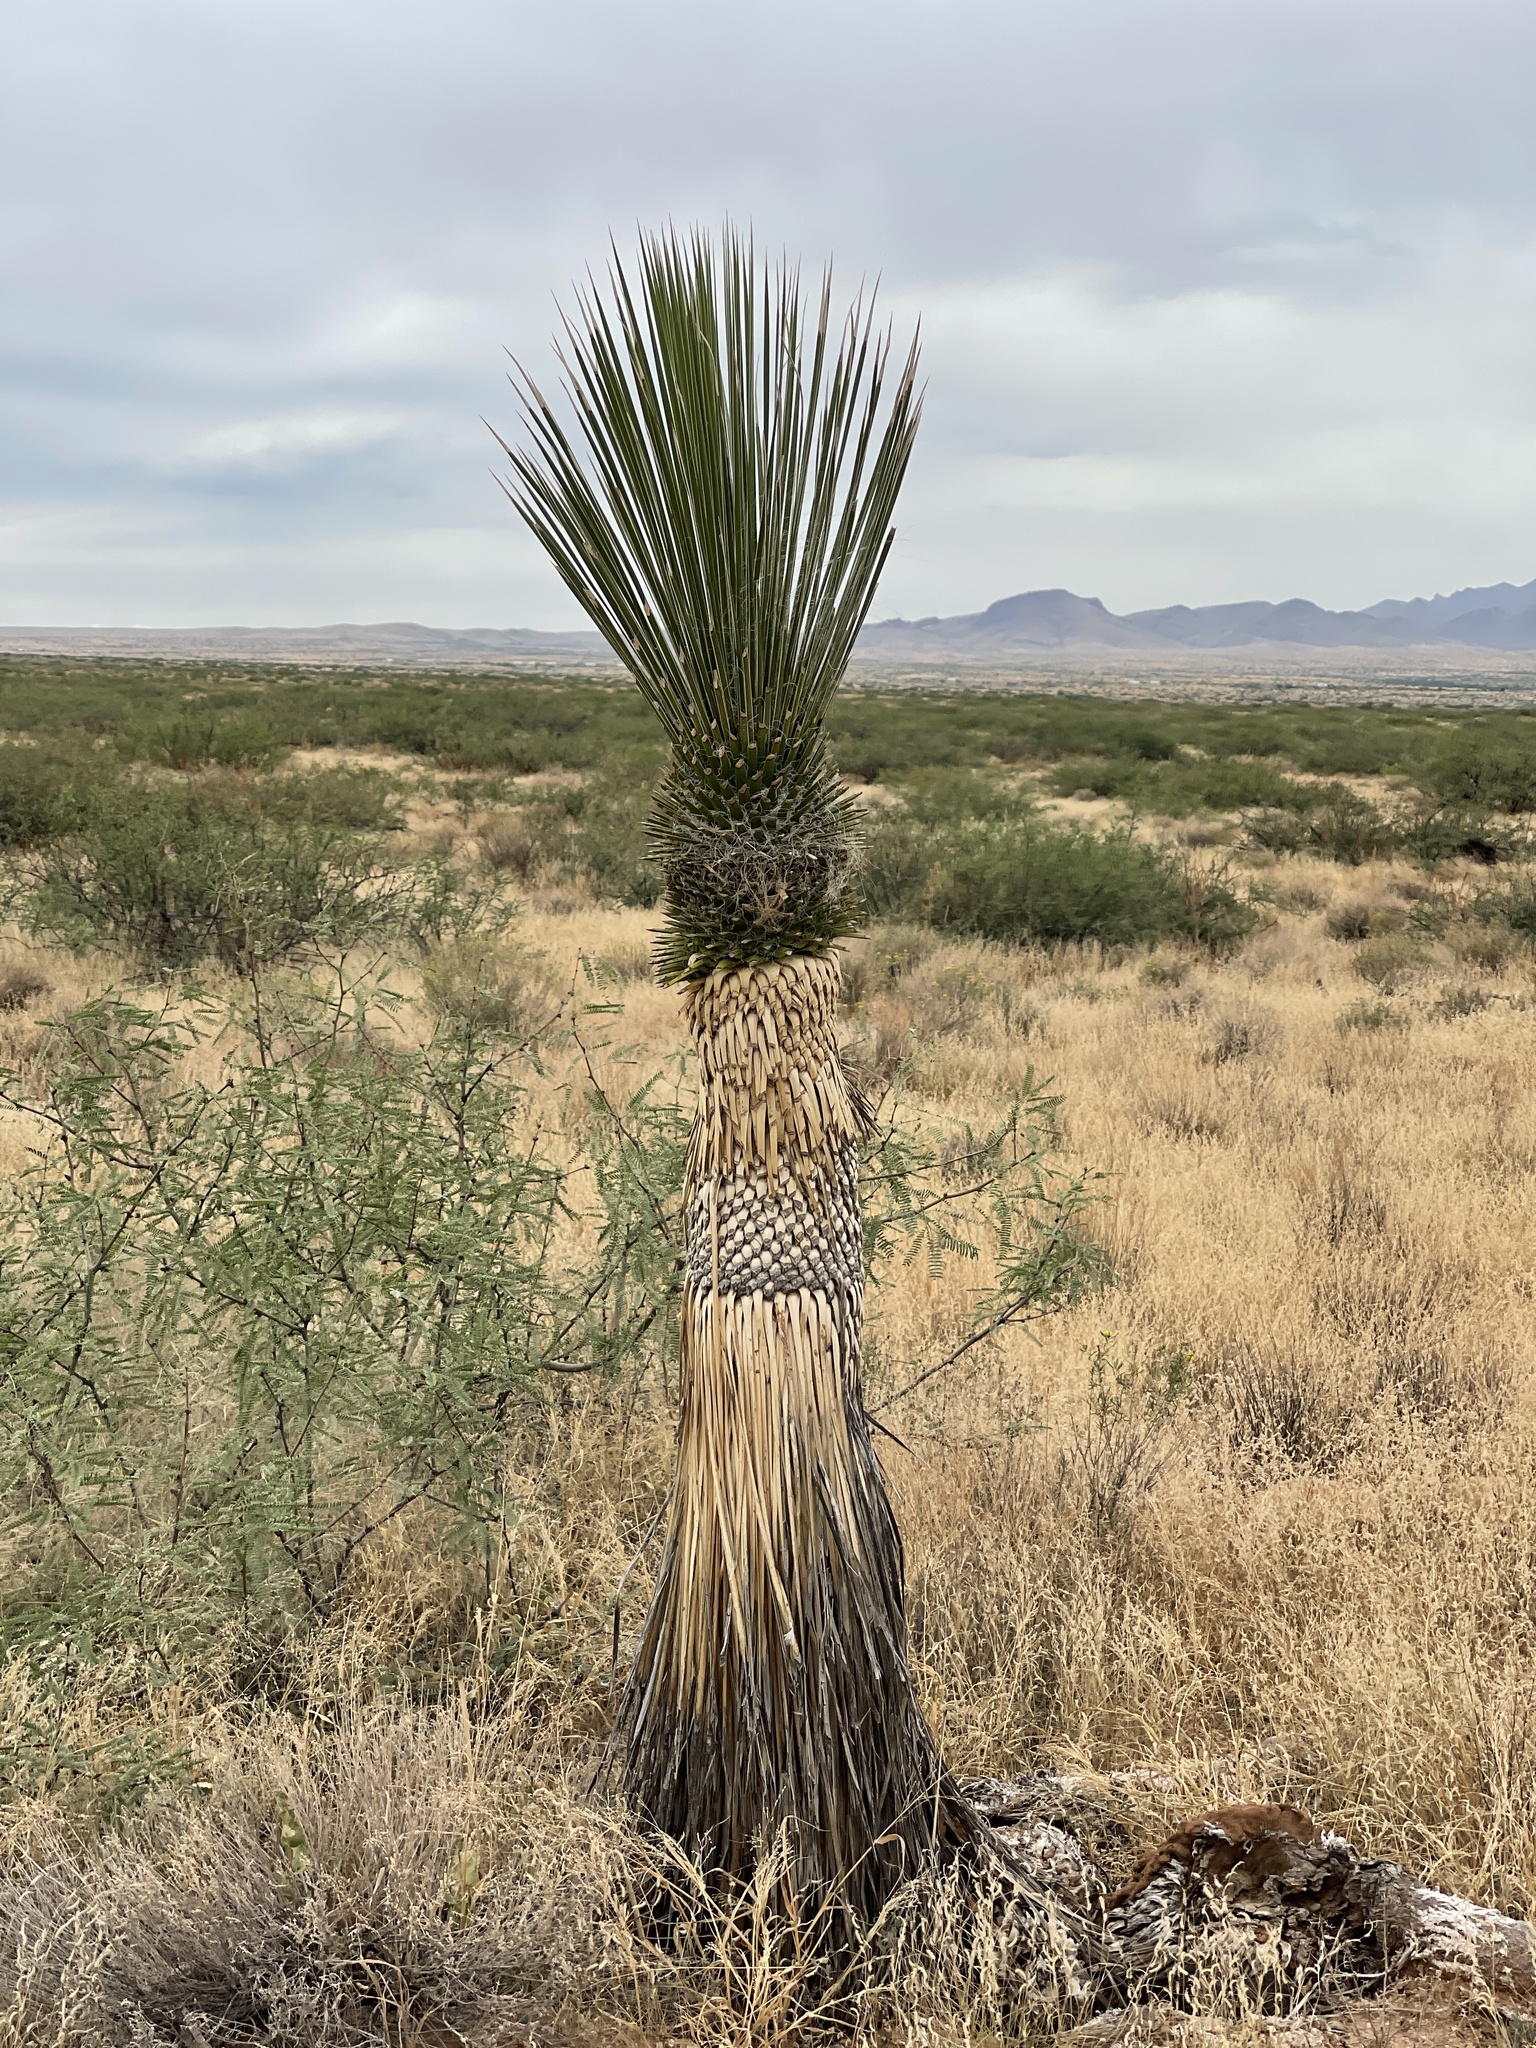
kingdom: Plantae
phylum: Tracheophyta
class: Liliopsida
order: Asparagales
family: Asparagaceae
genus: Yucca
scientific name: Yucca elata
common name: Palmella
